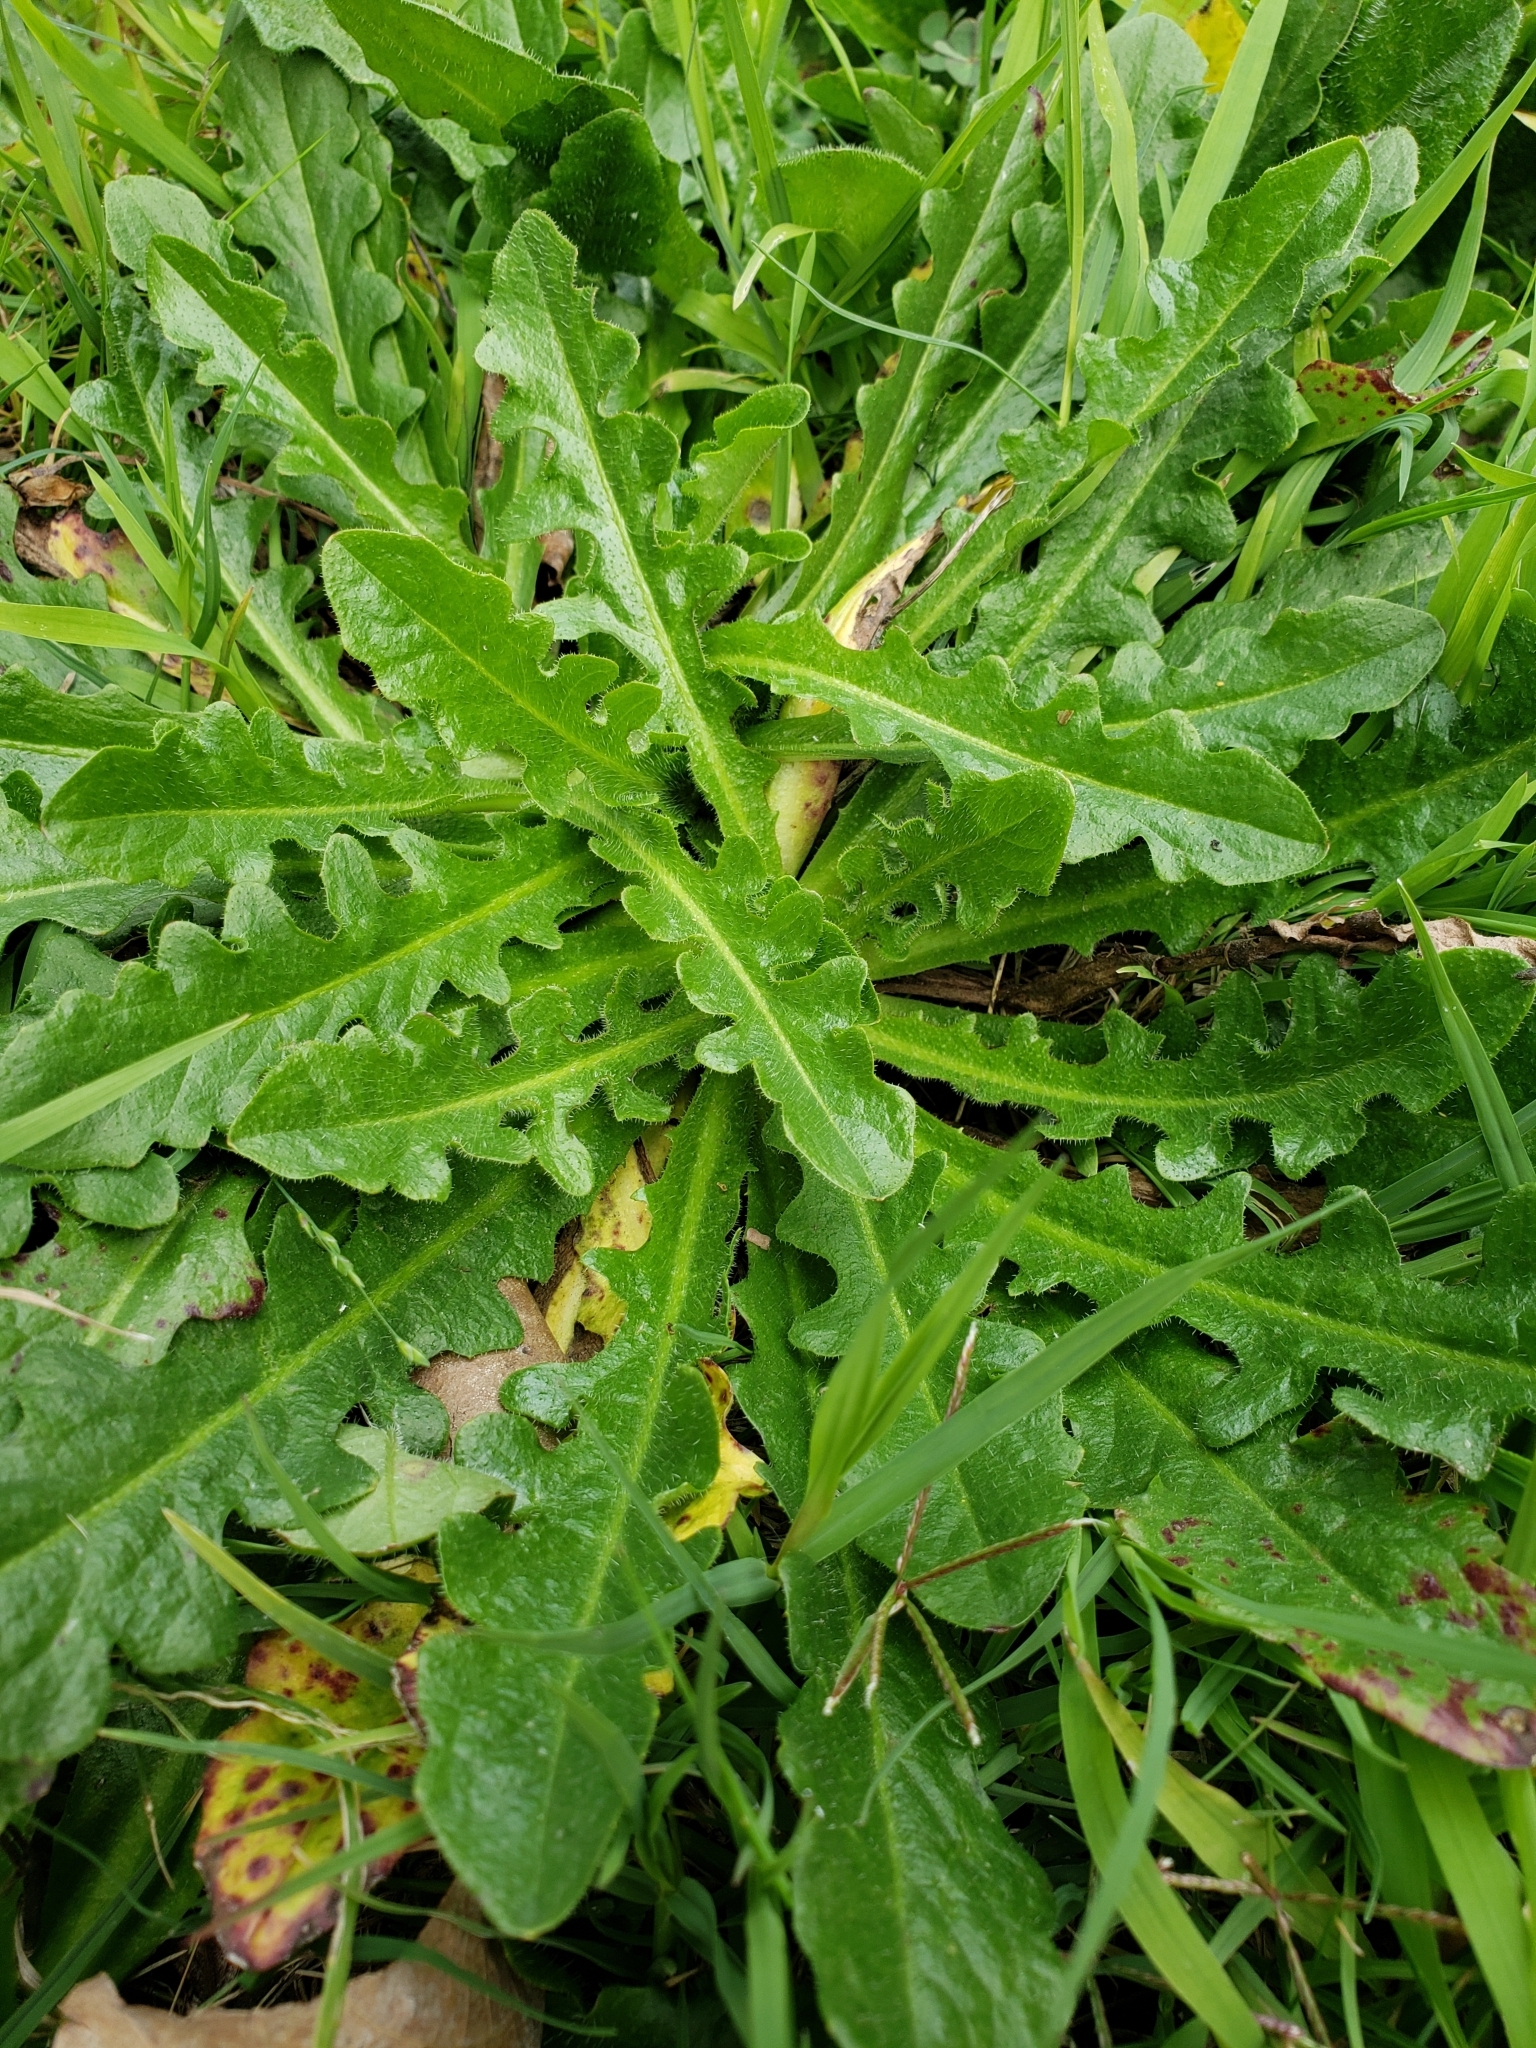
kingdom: Plantae
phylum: Tracheophyta
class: Magnoliopsida
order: Asterales
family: Asteraceae
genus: Hypochaeris
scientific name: Hypochaeris radicata
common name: Flatweed
